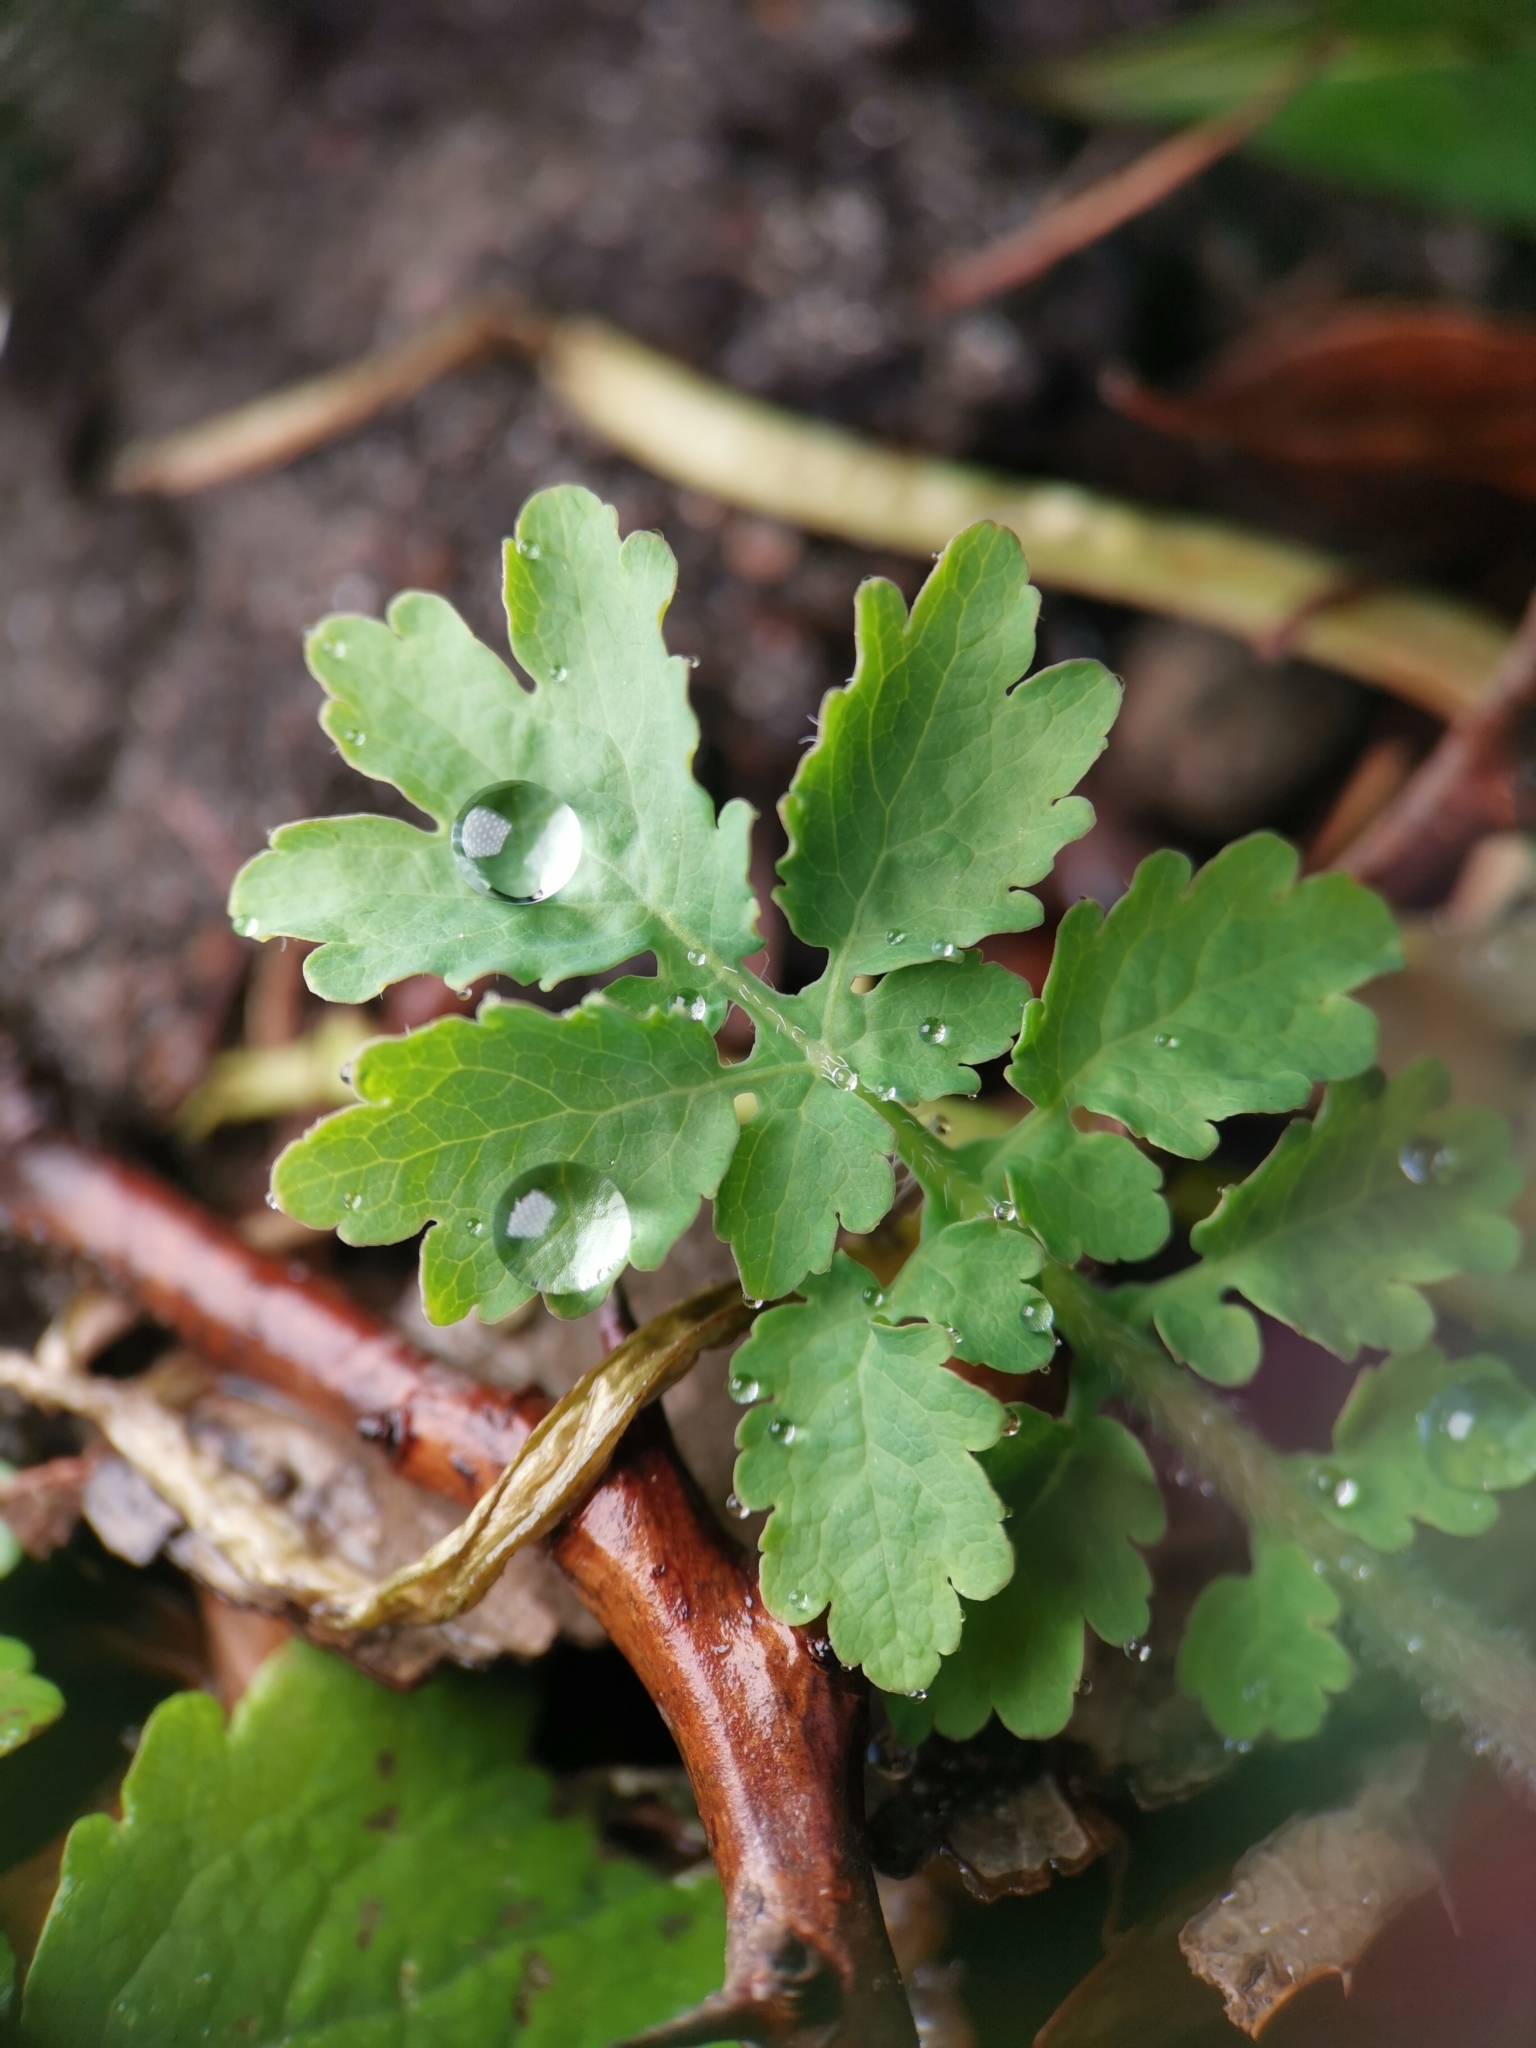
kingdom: Plantae
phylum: Tracheophyta
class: Magnoliopsida
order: Ranunculales
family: Papaveraceae
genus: Chelidonium
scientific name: Chelidonium majus
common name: Greater celandine
